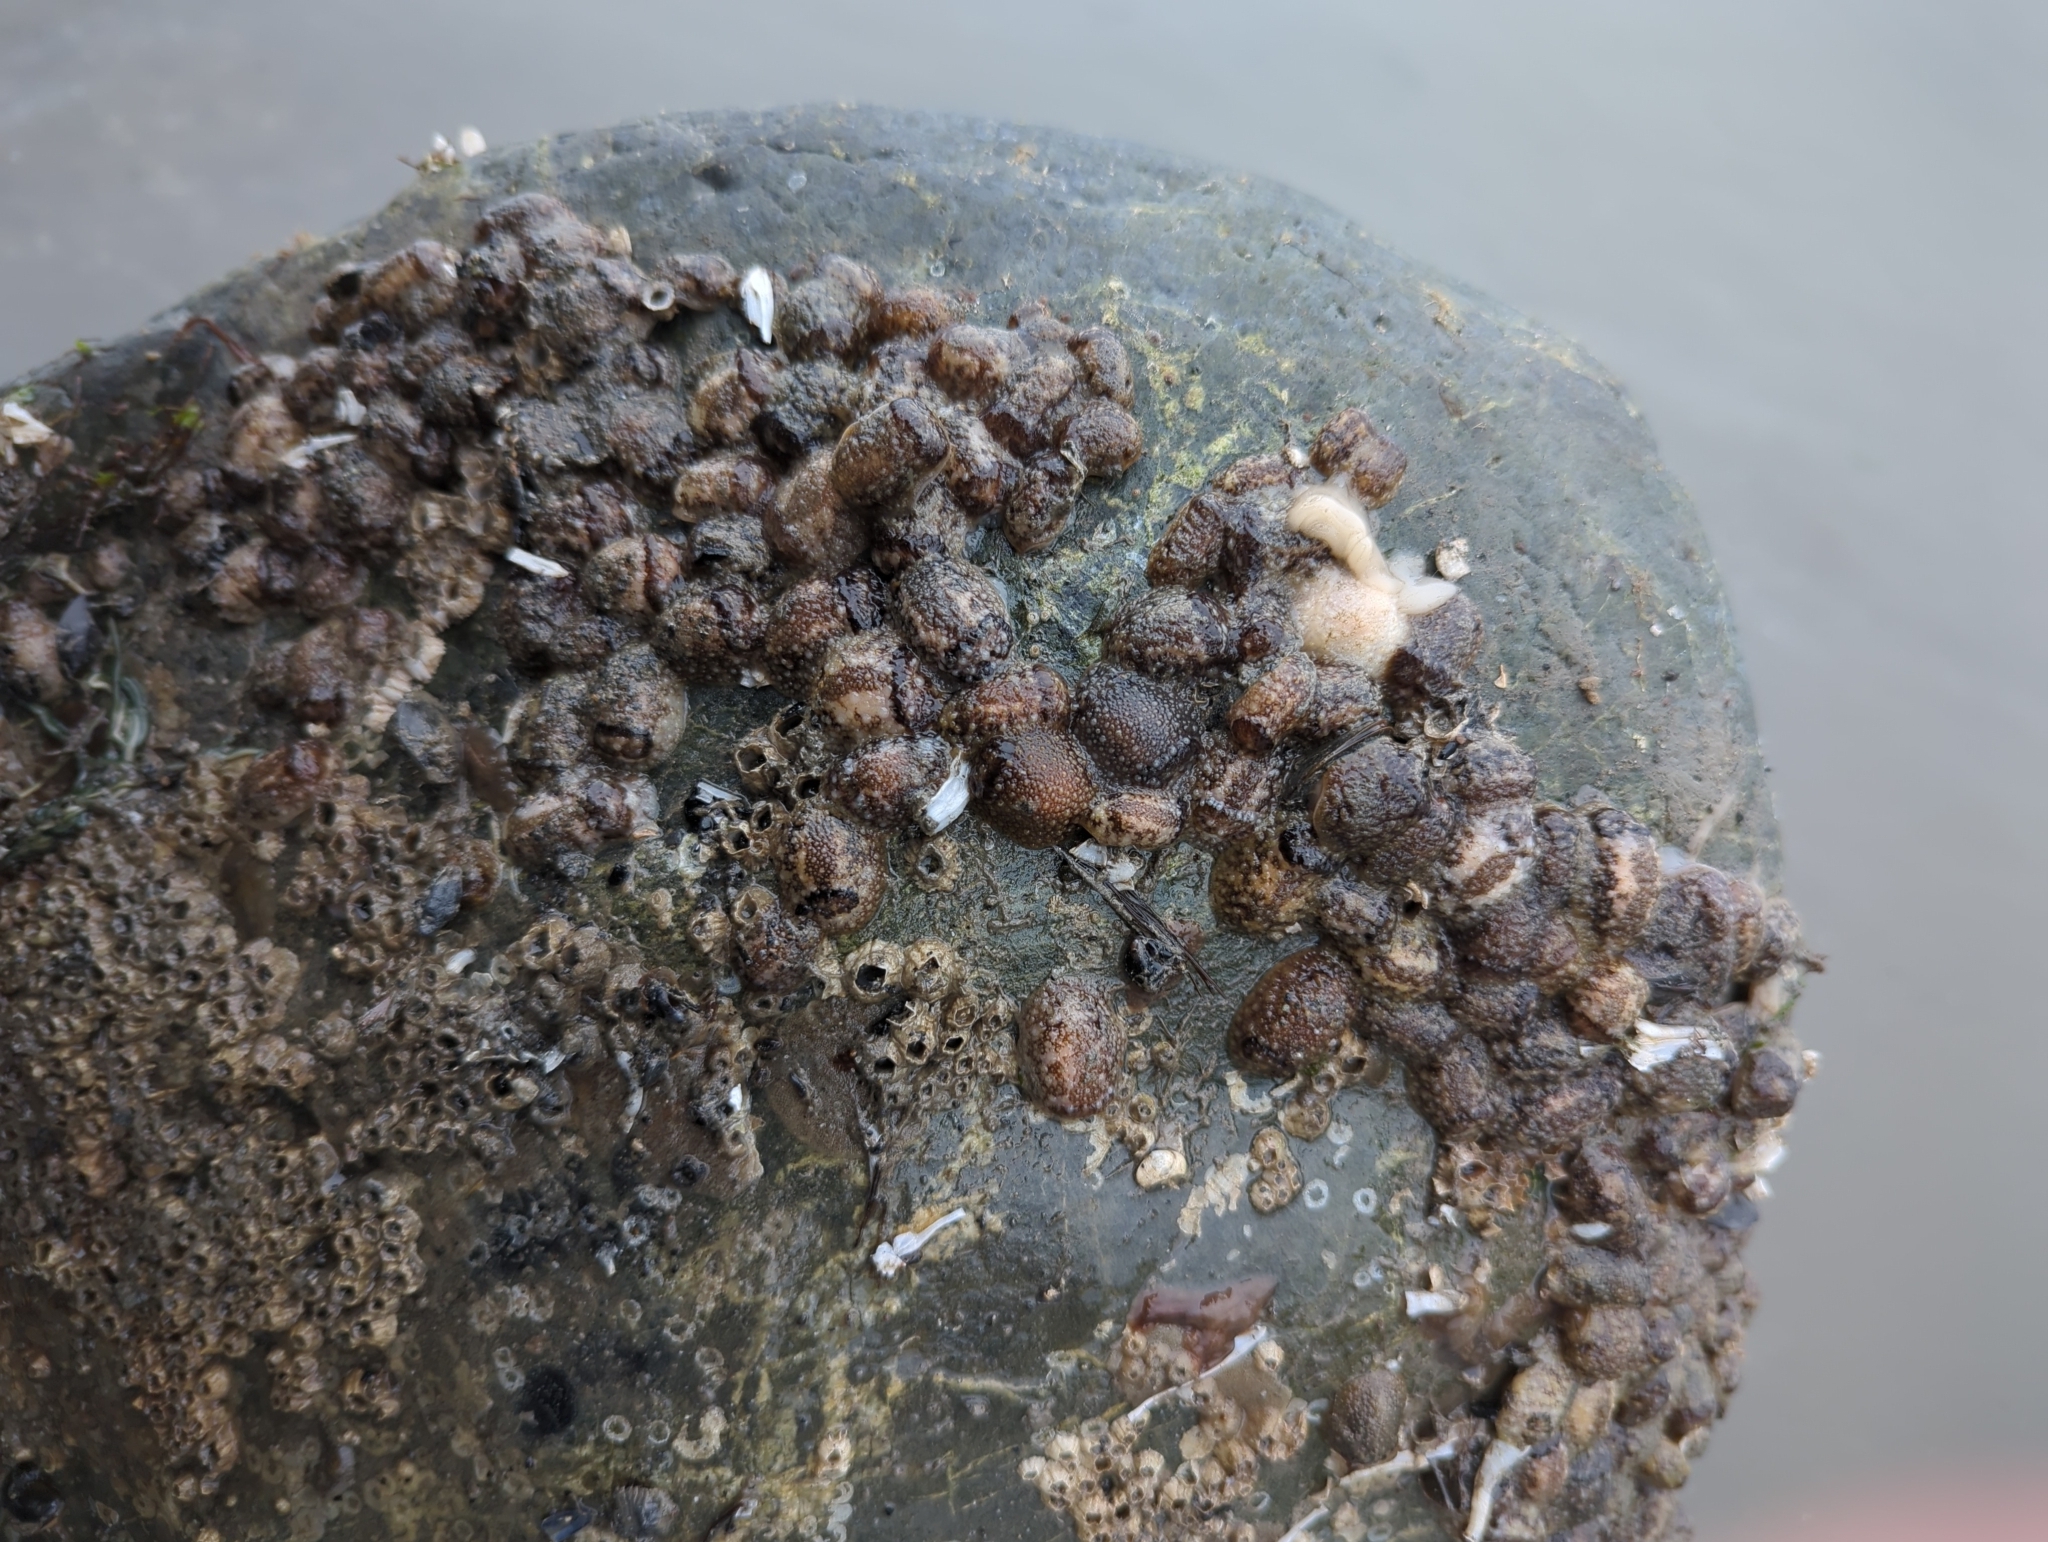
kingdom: Animalia
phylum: Mollusca
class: Gastropoda
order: Nudibranchia
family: Onchidorididae
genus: Onchidoris
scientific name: Onchidoris bilamellata
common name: Barnacle-eating onchidoris
